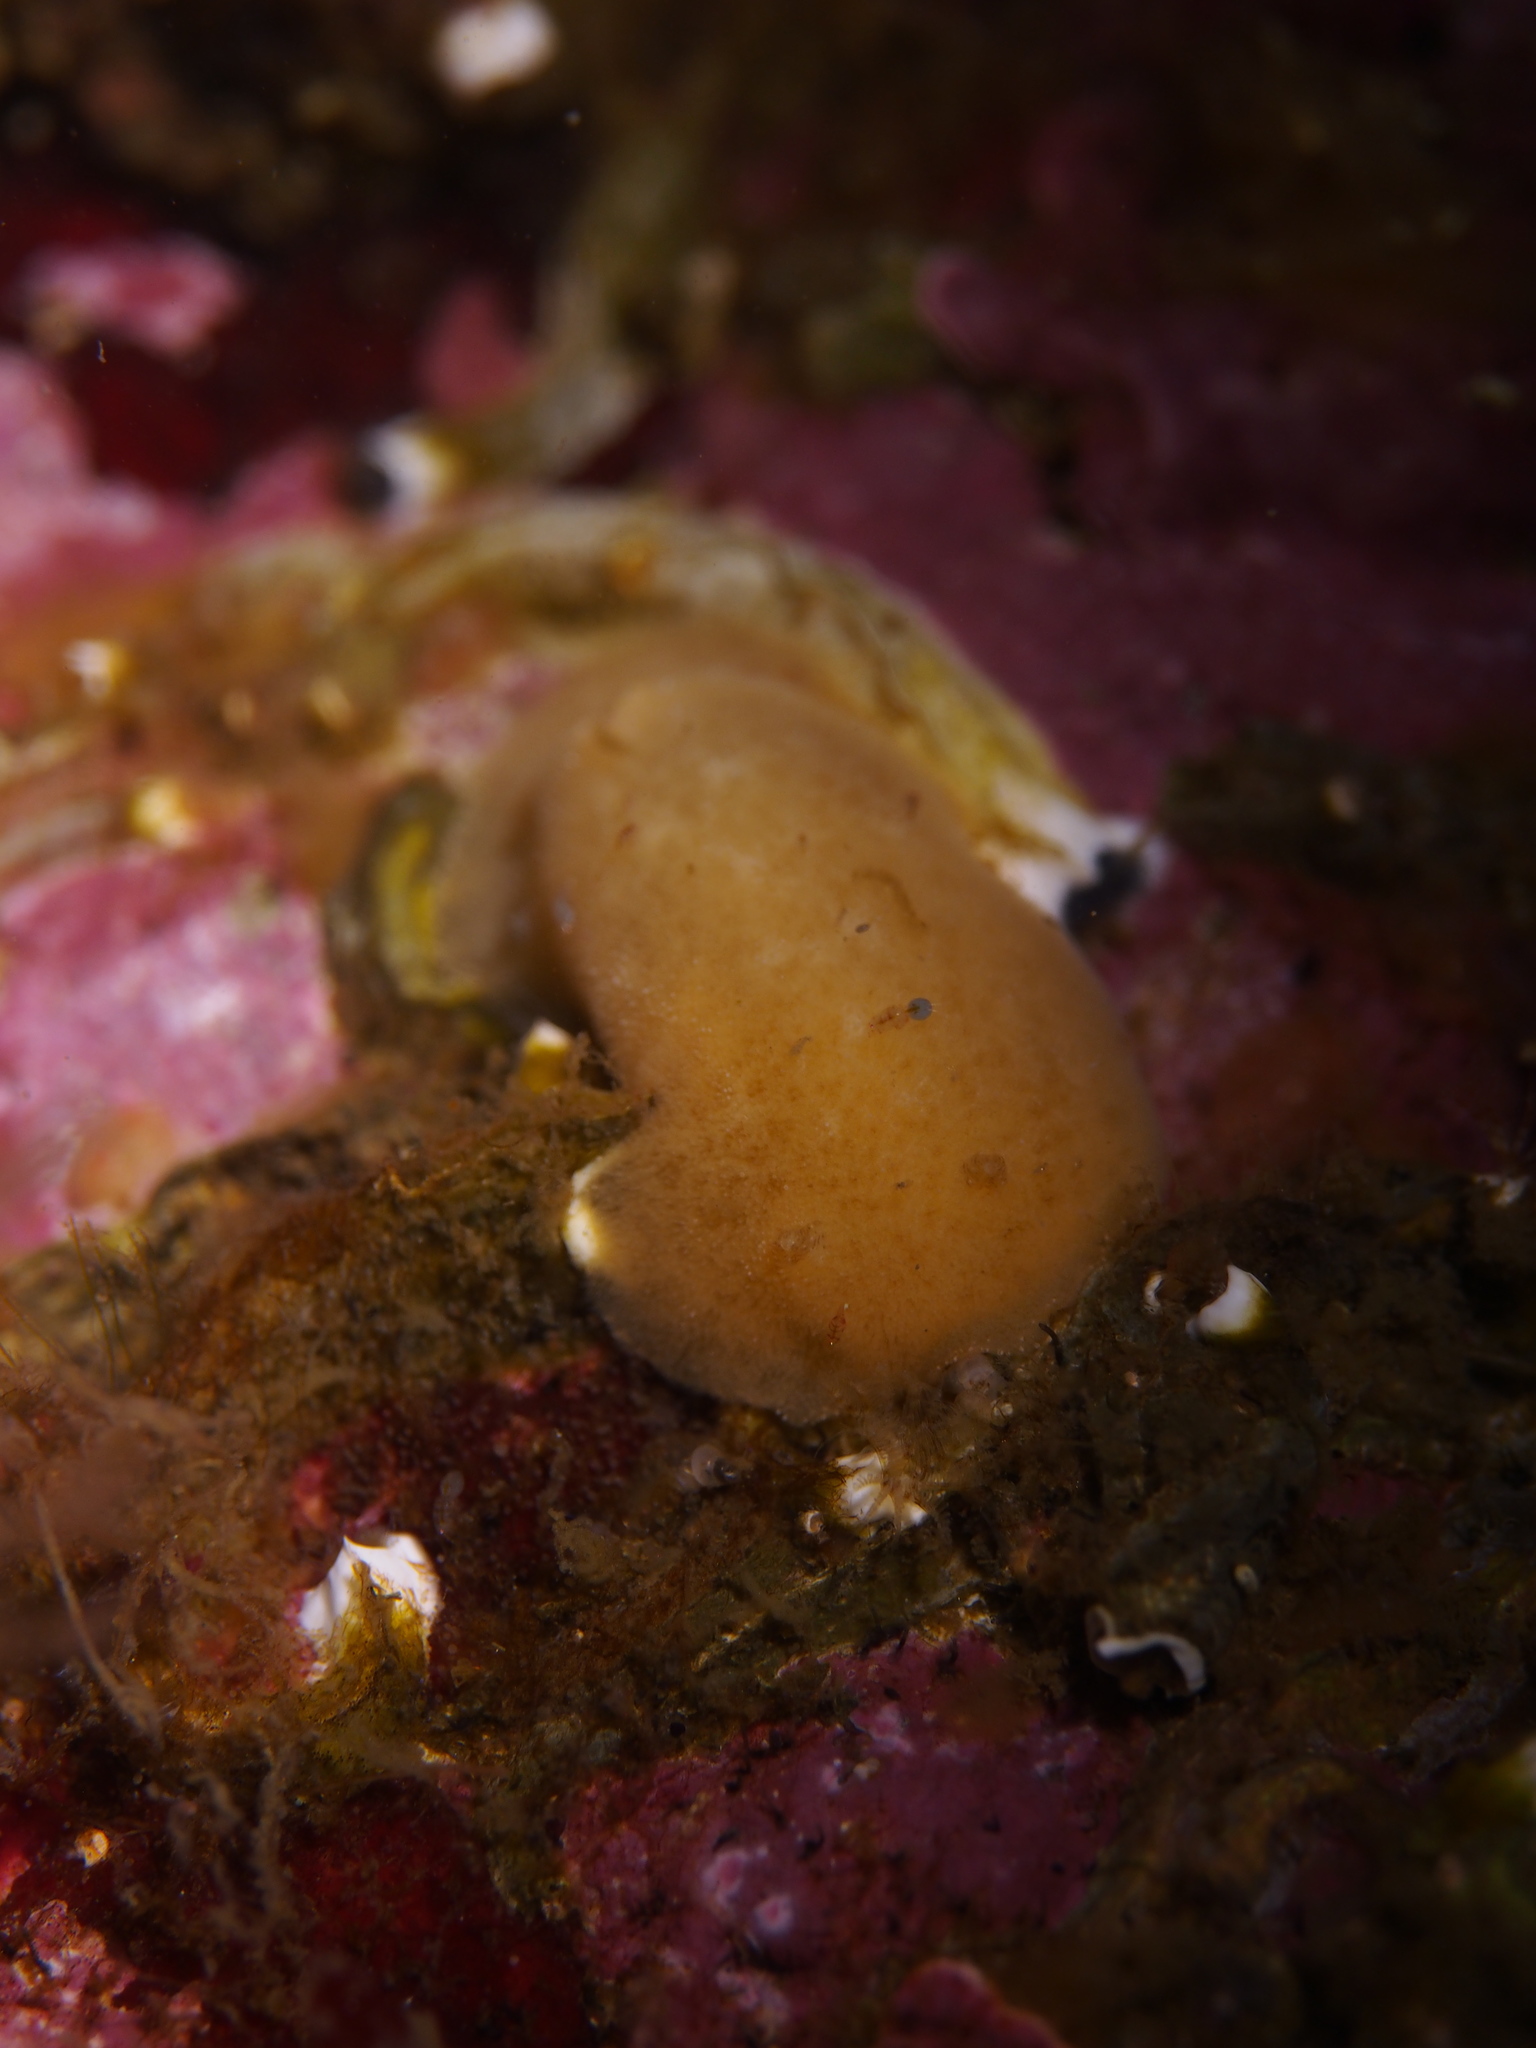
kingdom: Animalia
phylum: Mollusca
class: Gastropoda
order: Nudibranchia
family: Discodorididae
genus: Jorunna
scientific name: Jorunna tomentosa
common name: Grey sea slug
